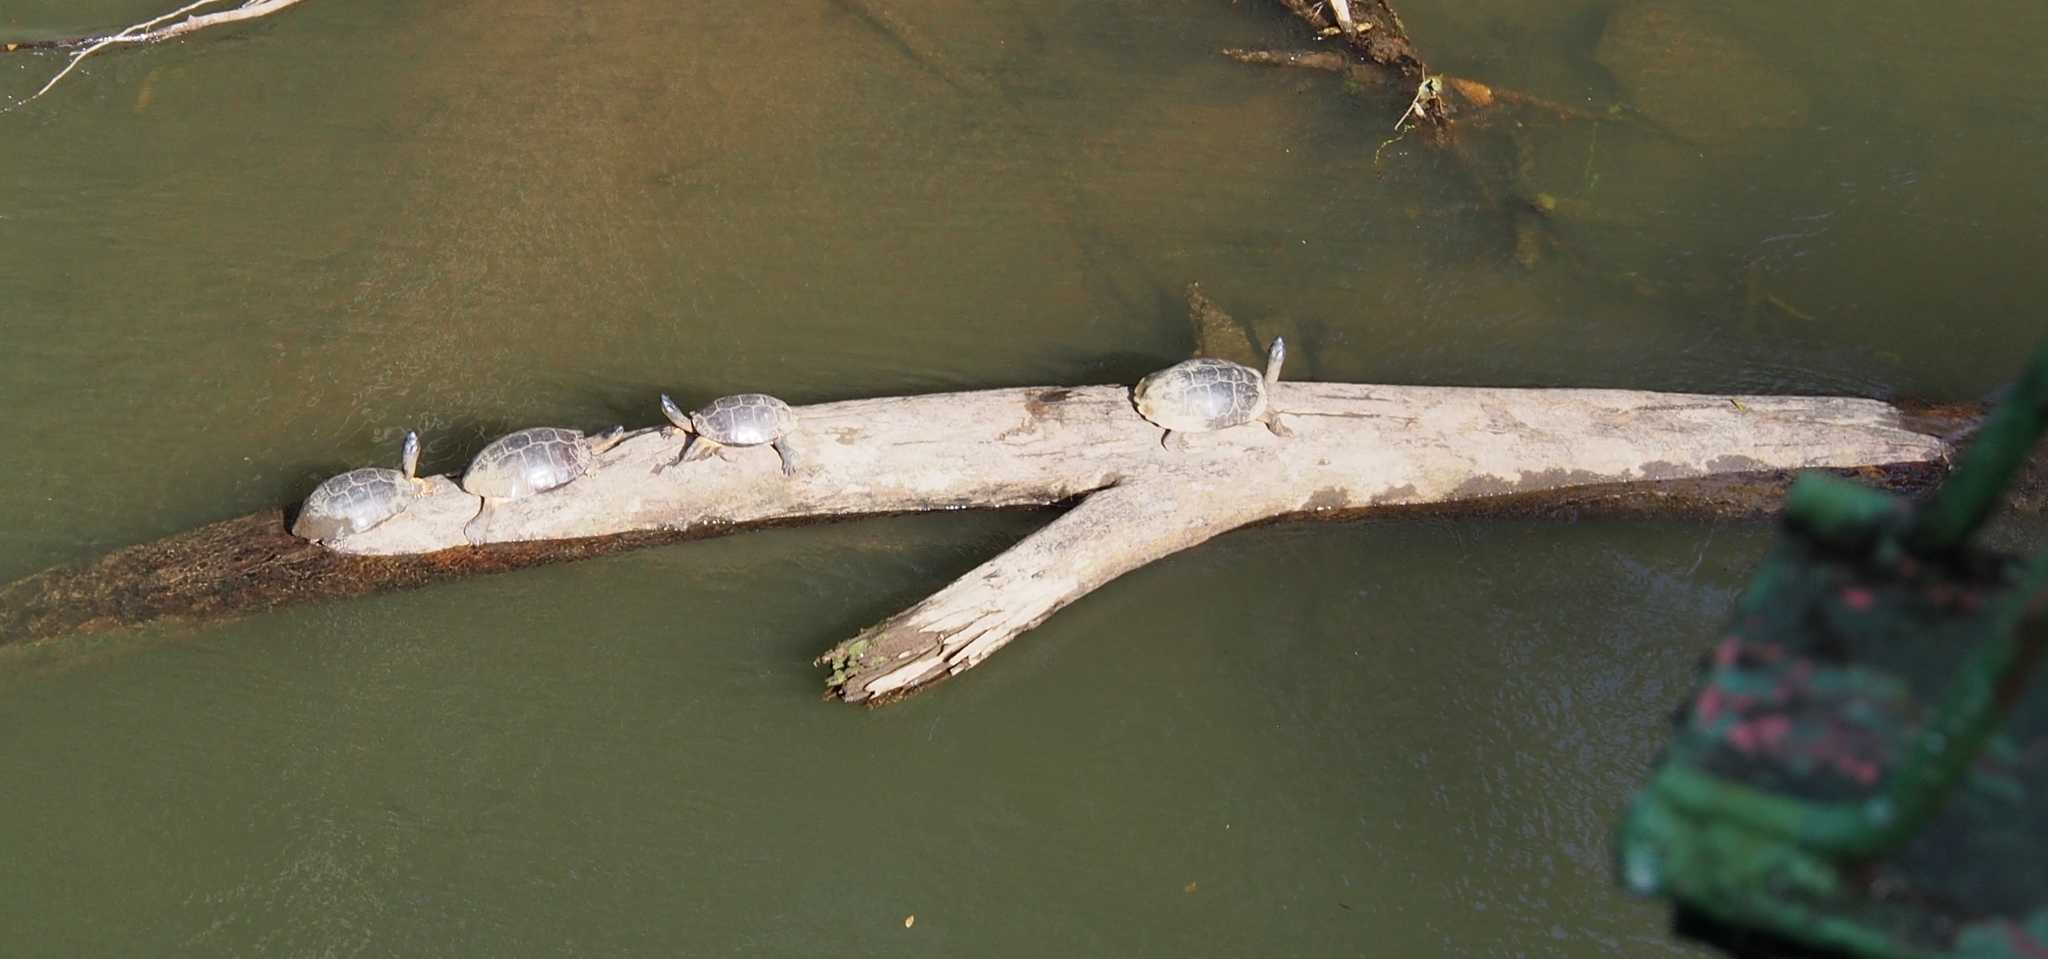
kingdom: Animalia
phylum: Chordata
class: Testudines
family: Geoemydidae
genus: Rhinoclemmys
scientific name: Rhinoclemmys funerea
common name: Black wood turtle
